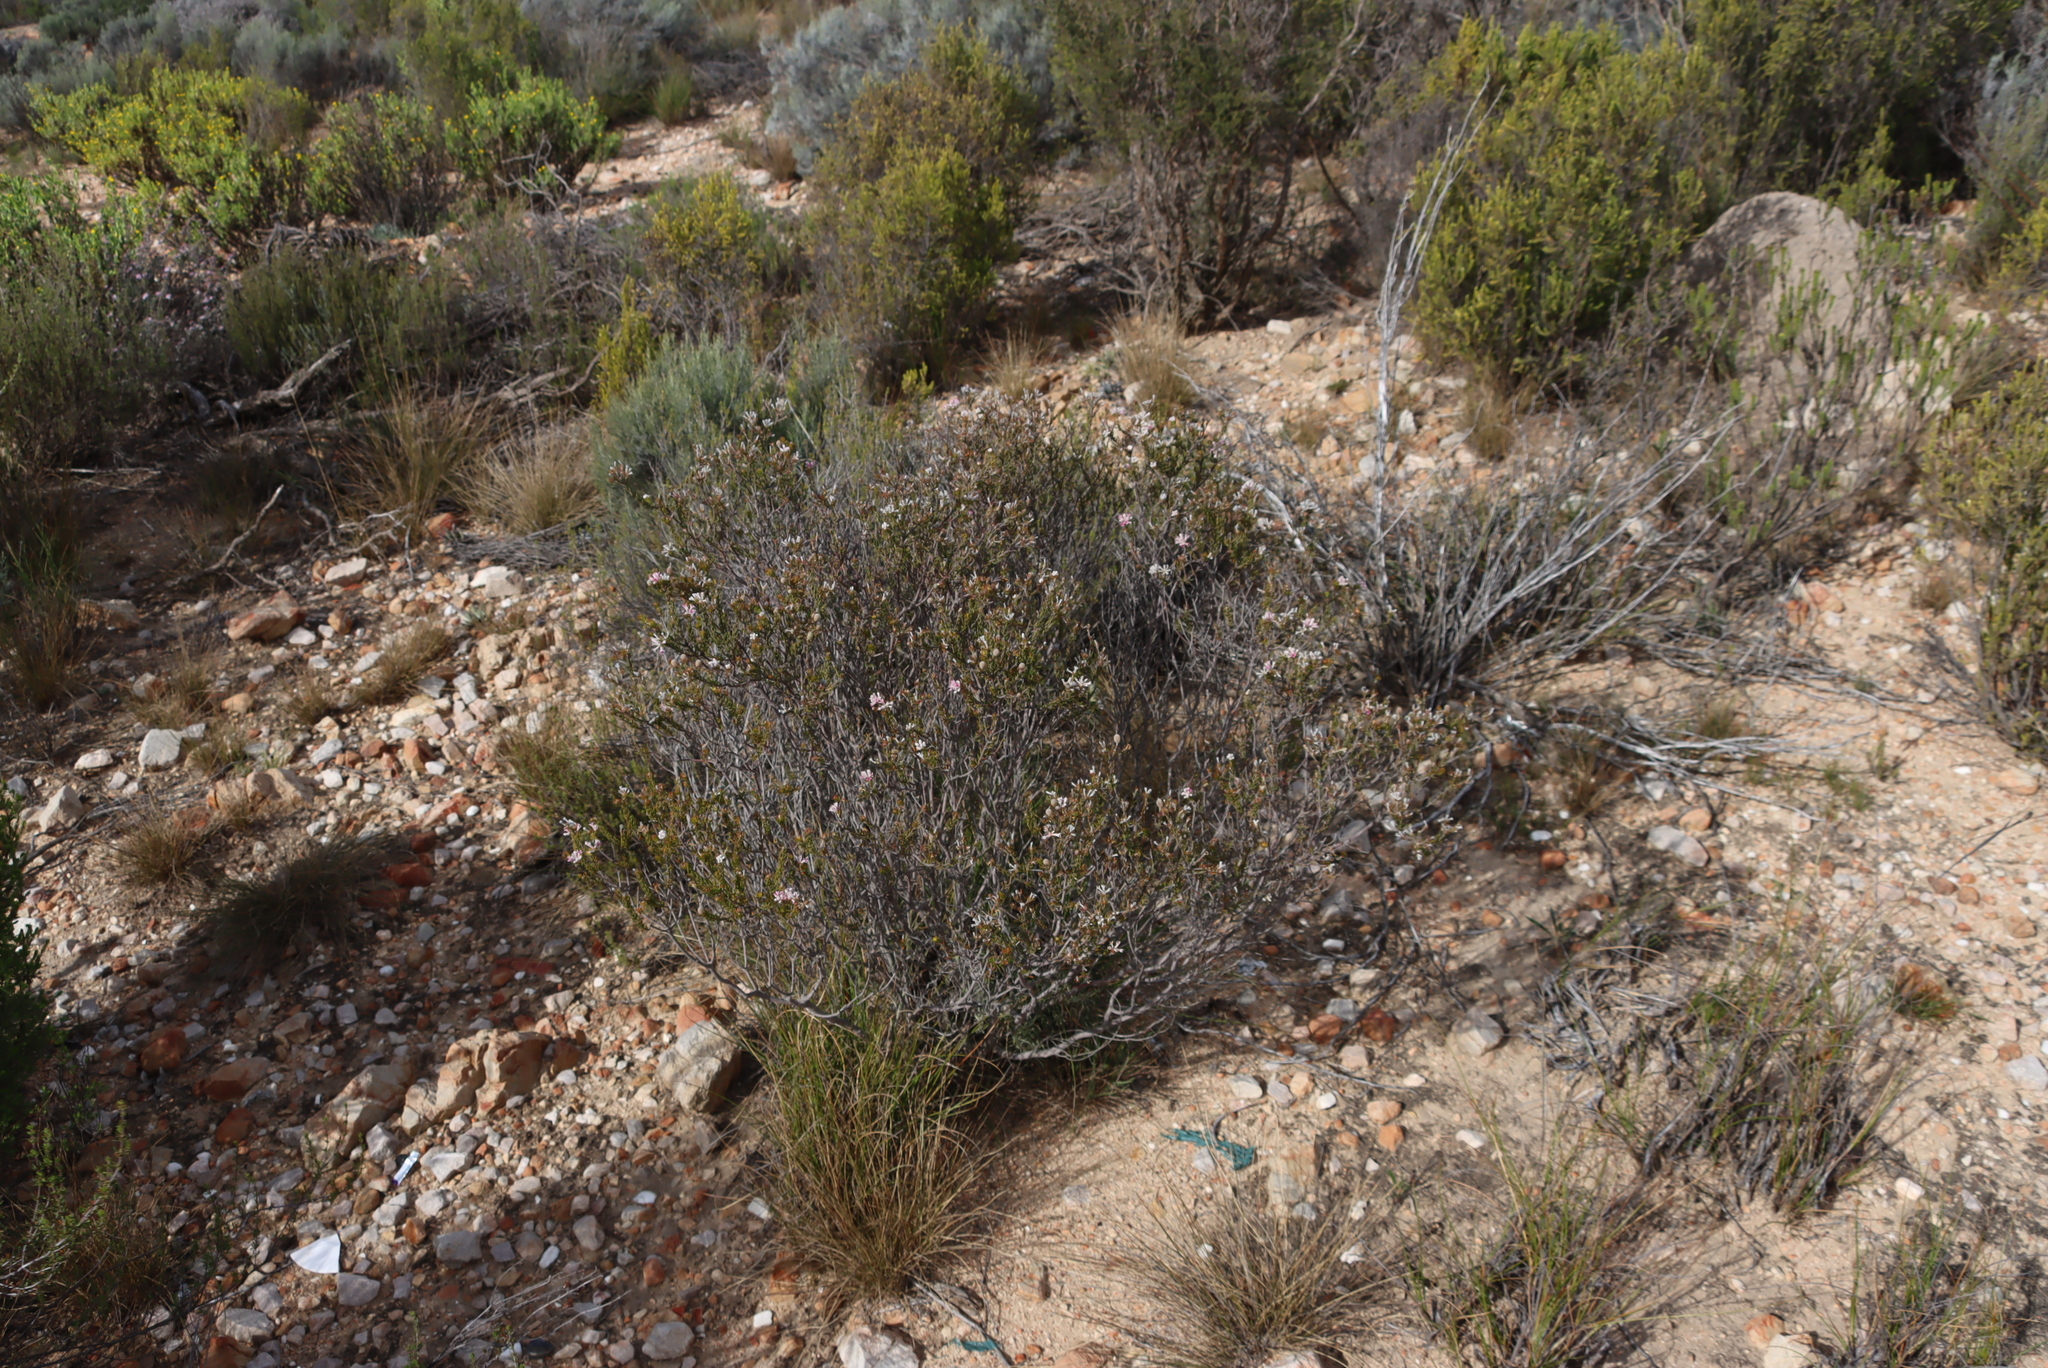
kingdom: Plantae
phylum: Tracheophyta
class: Magnoliopsida
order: Rosales
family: Rhamnaceae
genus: Phylica
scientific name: Phylica lachneaeoides
